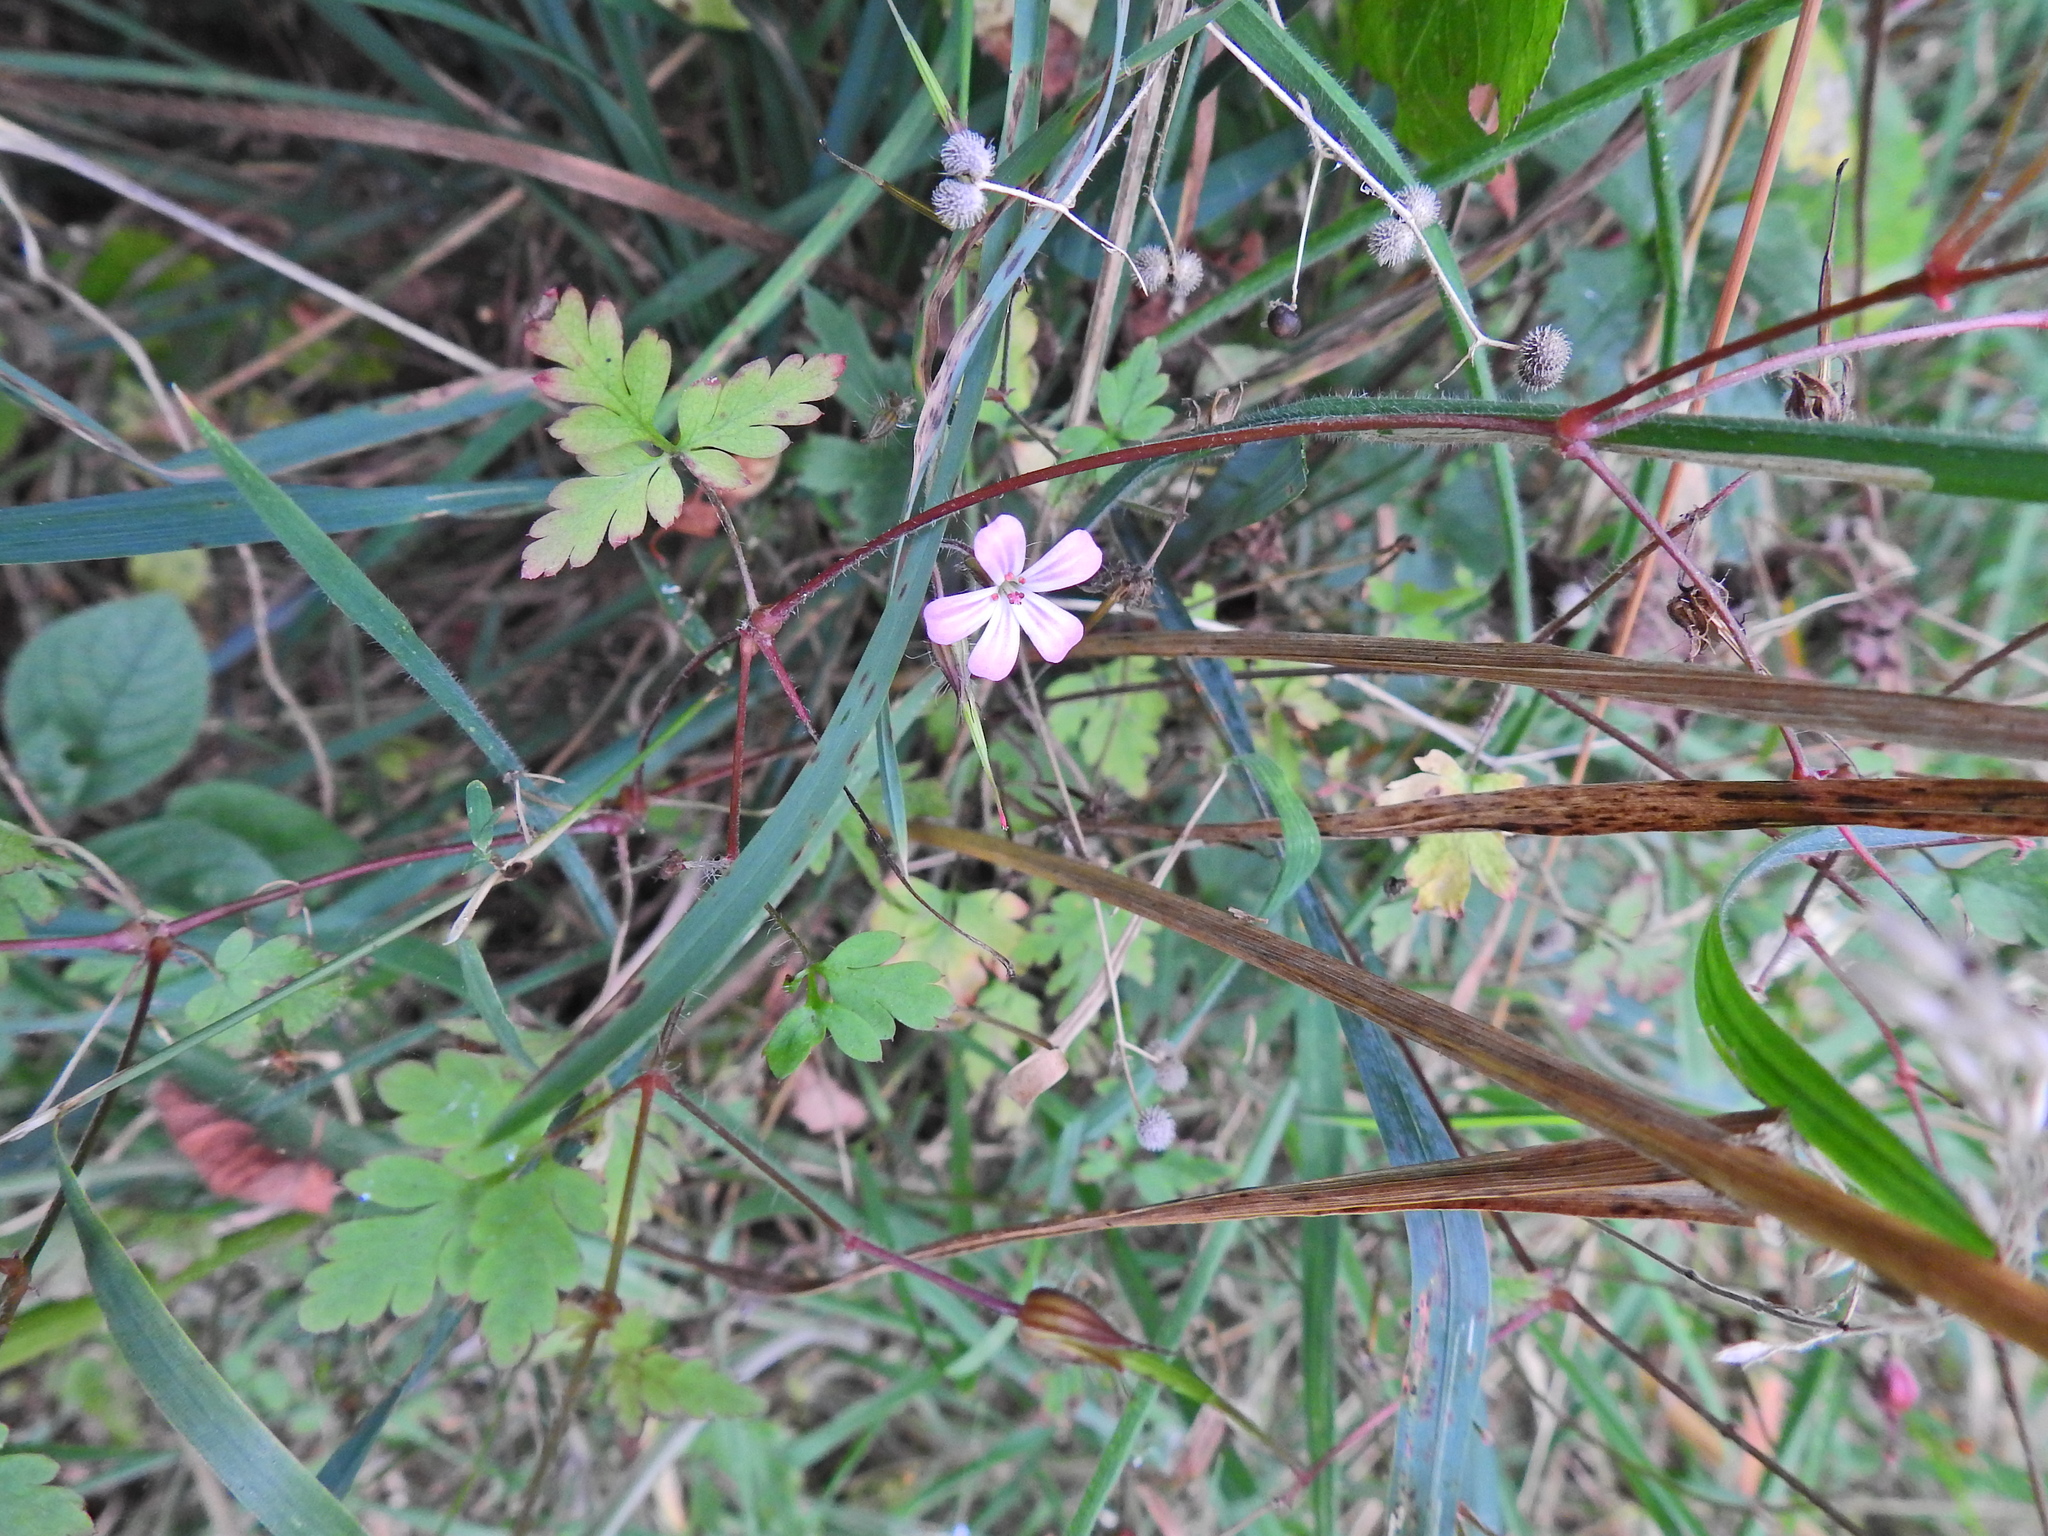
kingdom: Plantae
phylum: Tracheophyta
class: Magnoliopsida
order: Geraniales
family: Geraniaceae
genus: Geranium
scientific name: Geranium robertianum
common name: Herb-robert
